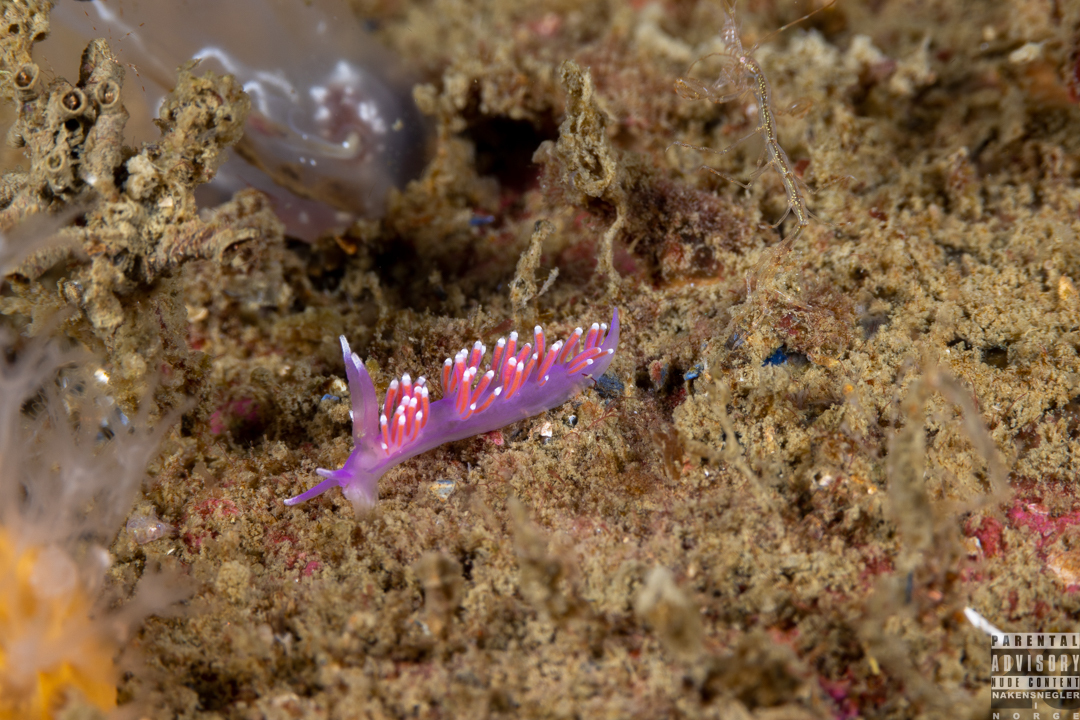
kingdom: Animalia
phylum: Mollusca
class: Gastropoda
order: Nudibranchia
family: Flabellinidae
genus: Edmundsella
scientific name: Edmundsella pedata
